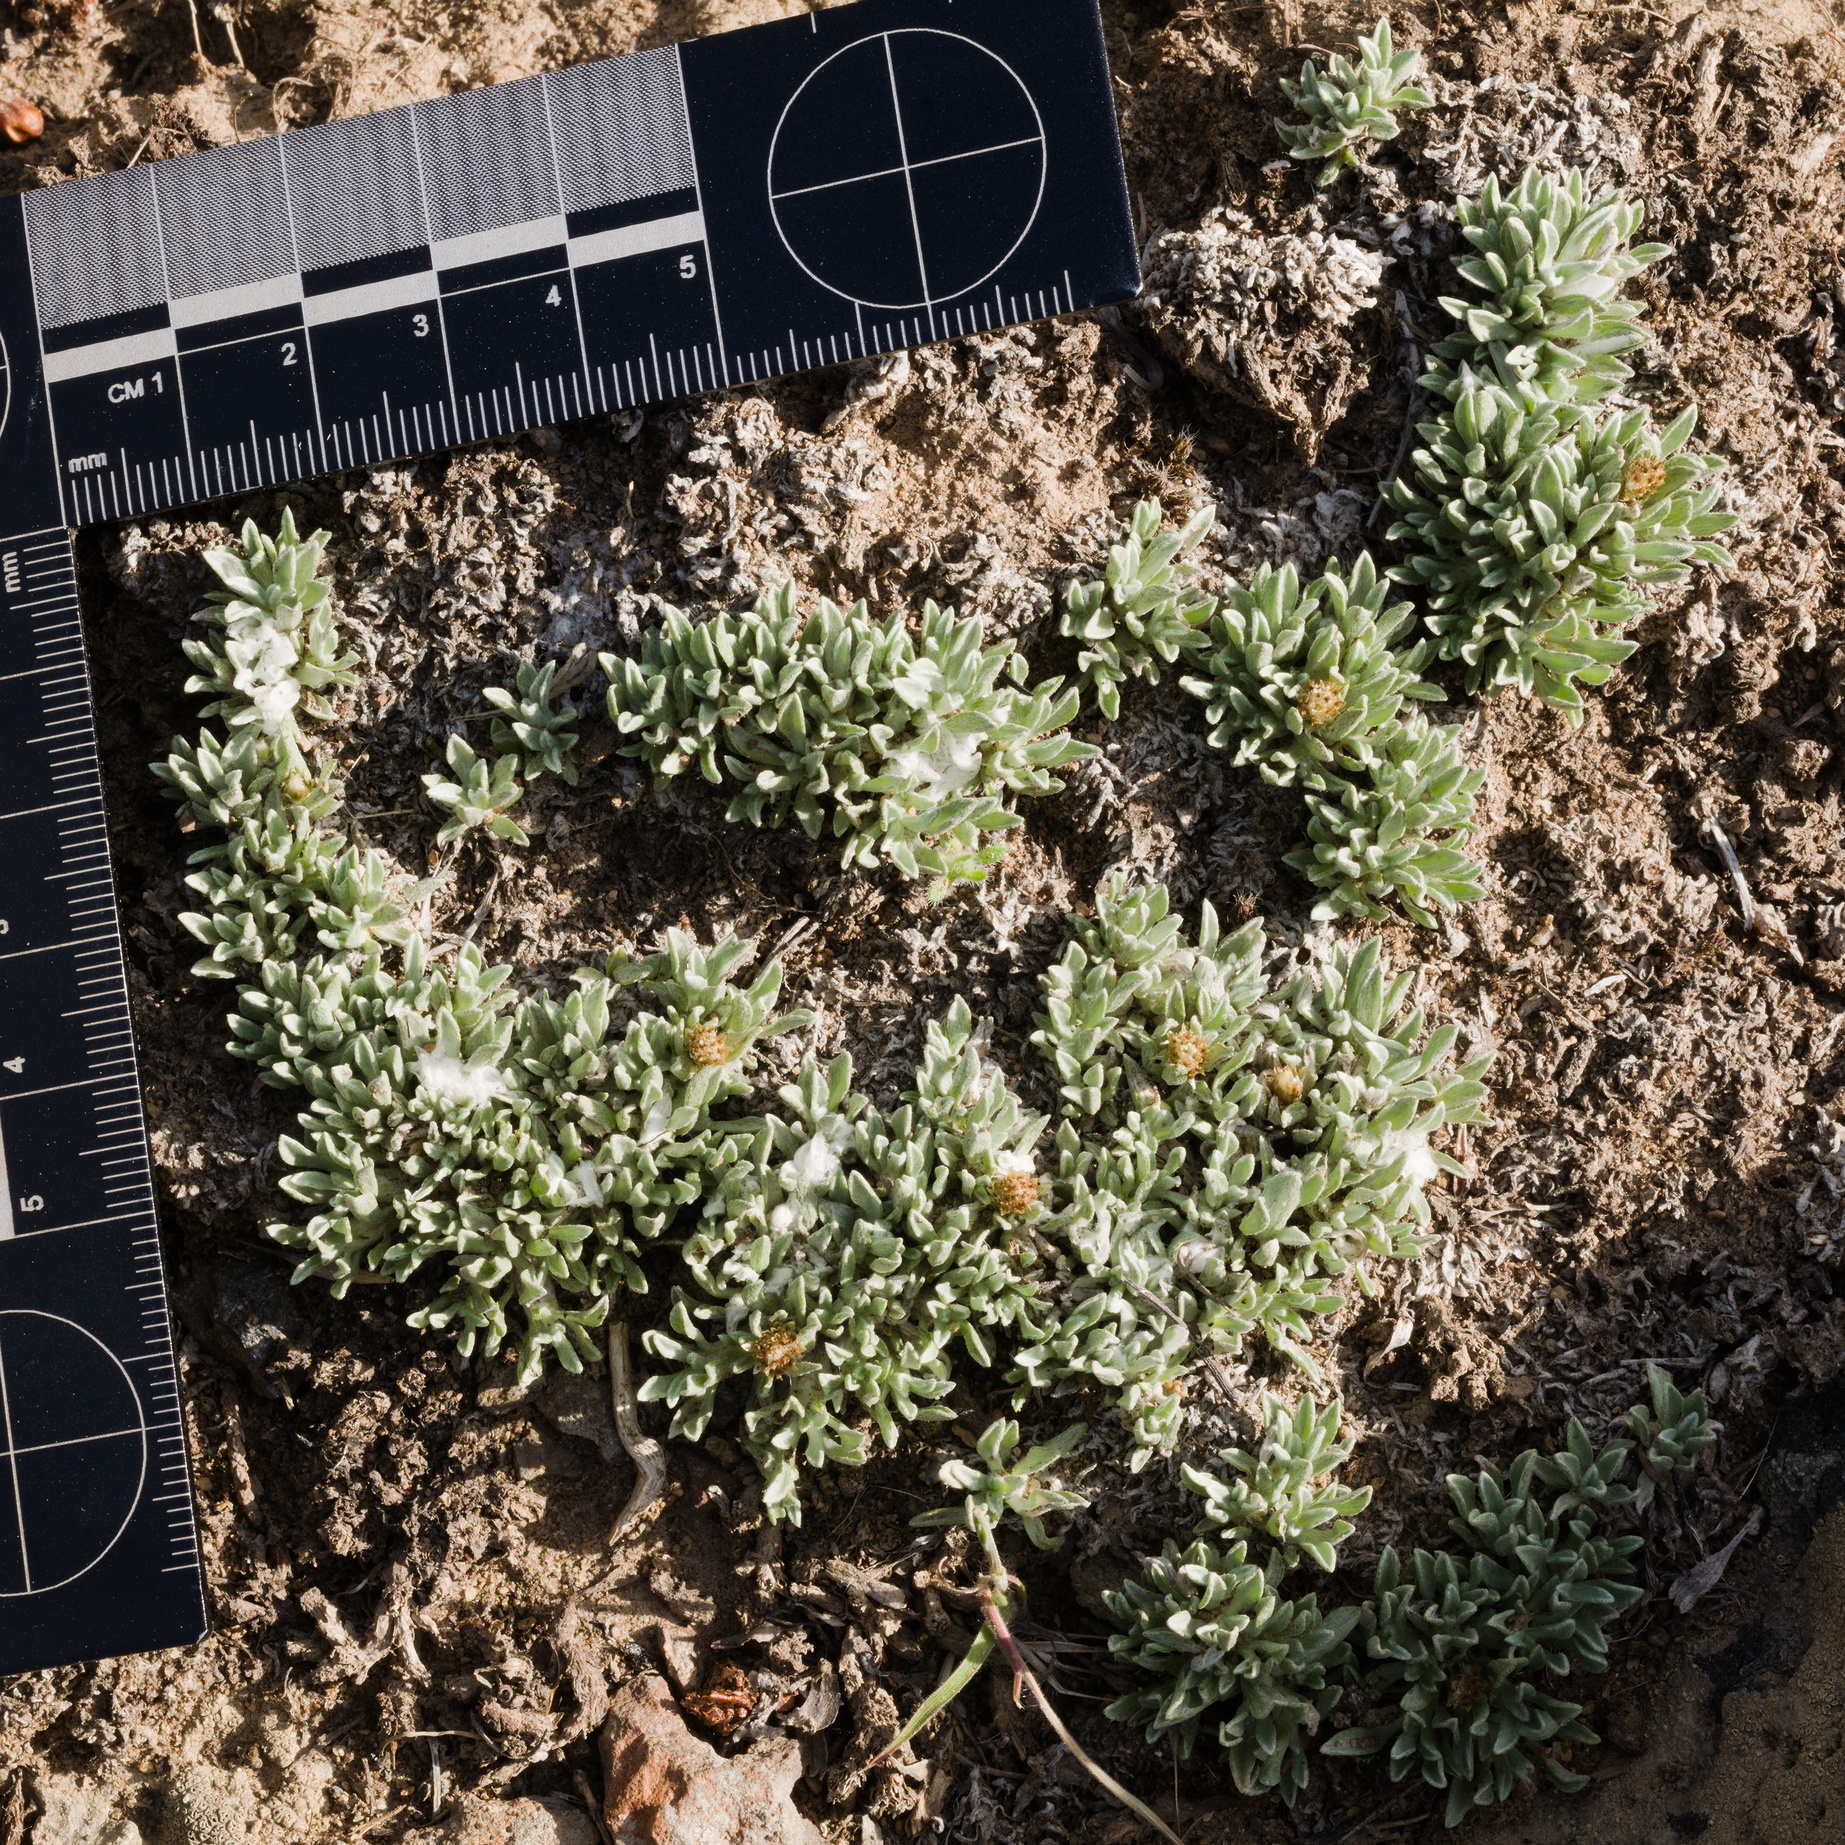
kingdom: Plantae
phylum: Tracheophyta
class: Magnoliopsida
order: Asterales
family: Asteraceae
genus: Antennaria
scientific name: Antennaria dimorpha
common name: Cushion pussytoes
